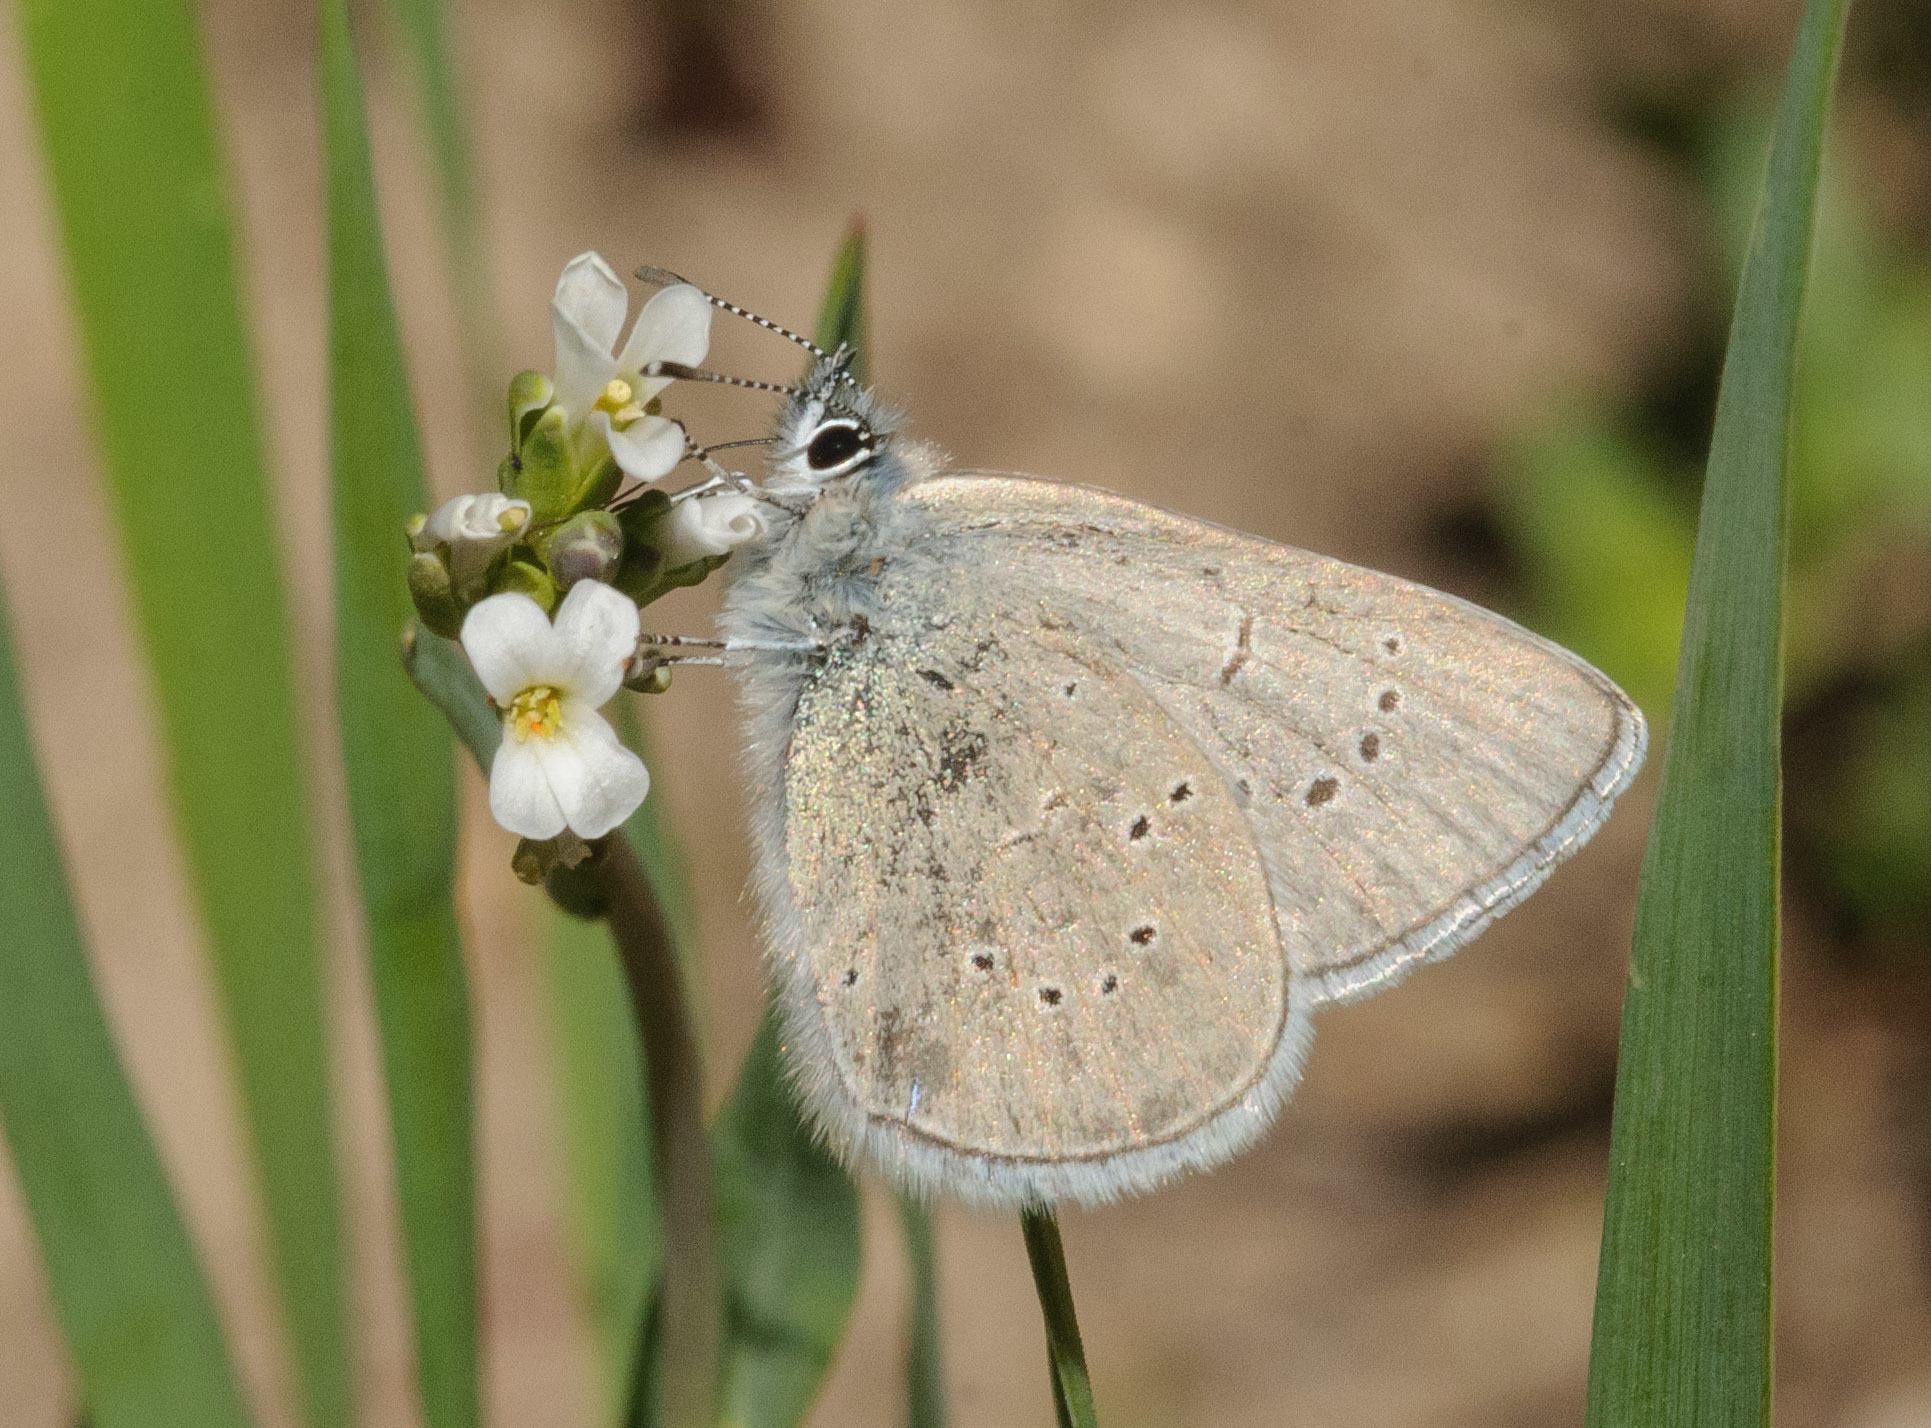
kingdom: Animalia
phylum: Arthropoda
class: Insecta
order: Lepidoptera
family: Lycaenidae
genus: Glaucopsyche
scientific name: Glaucopsyche lygdamus
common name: Silvery blue
